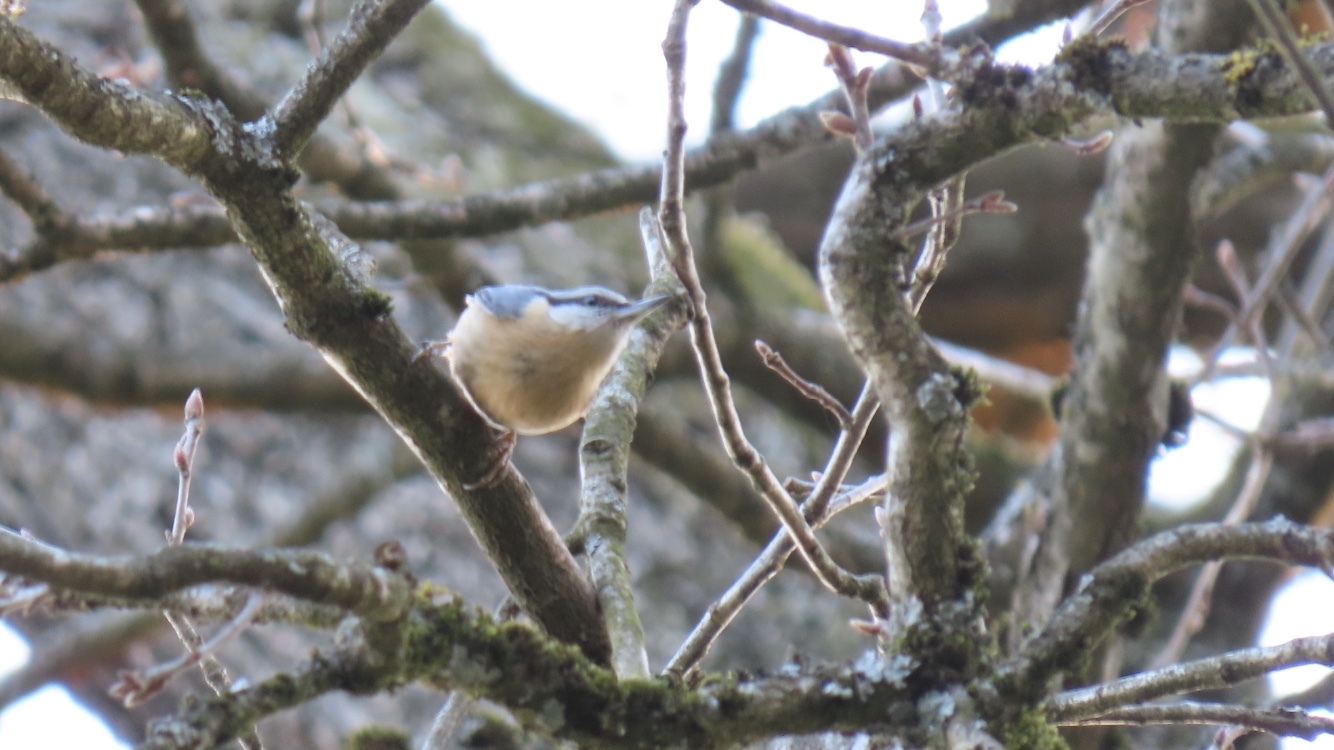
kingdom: Animalia
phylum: Chordata
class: Aves
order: Passeriformes
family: Sittidae
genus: Sitta
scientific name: Sitta europaea
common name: Eurasian nuthatch
